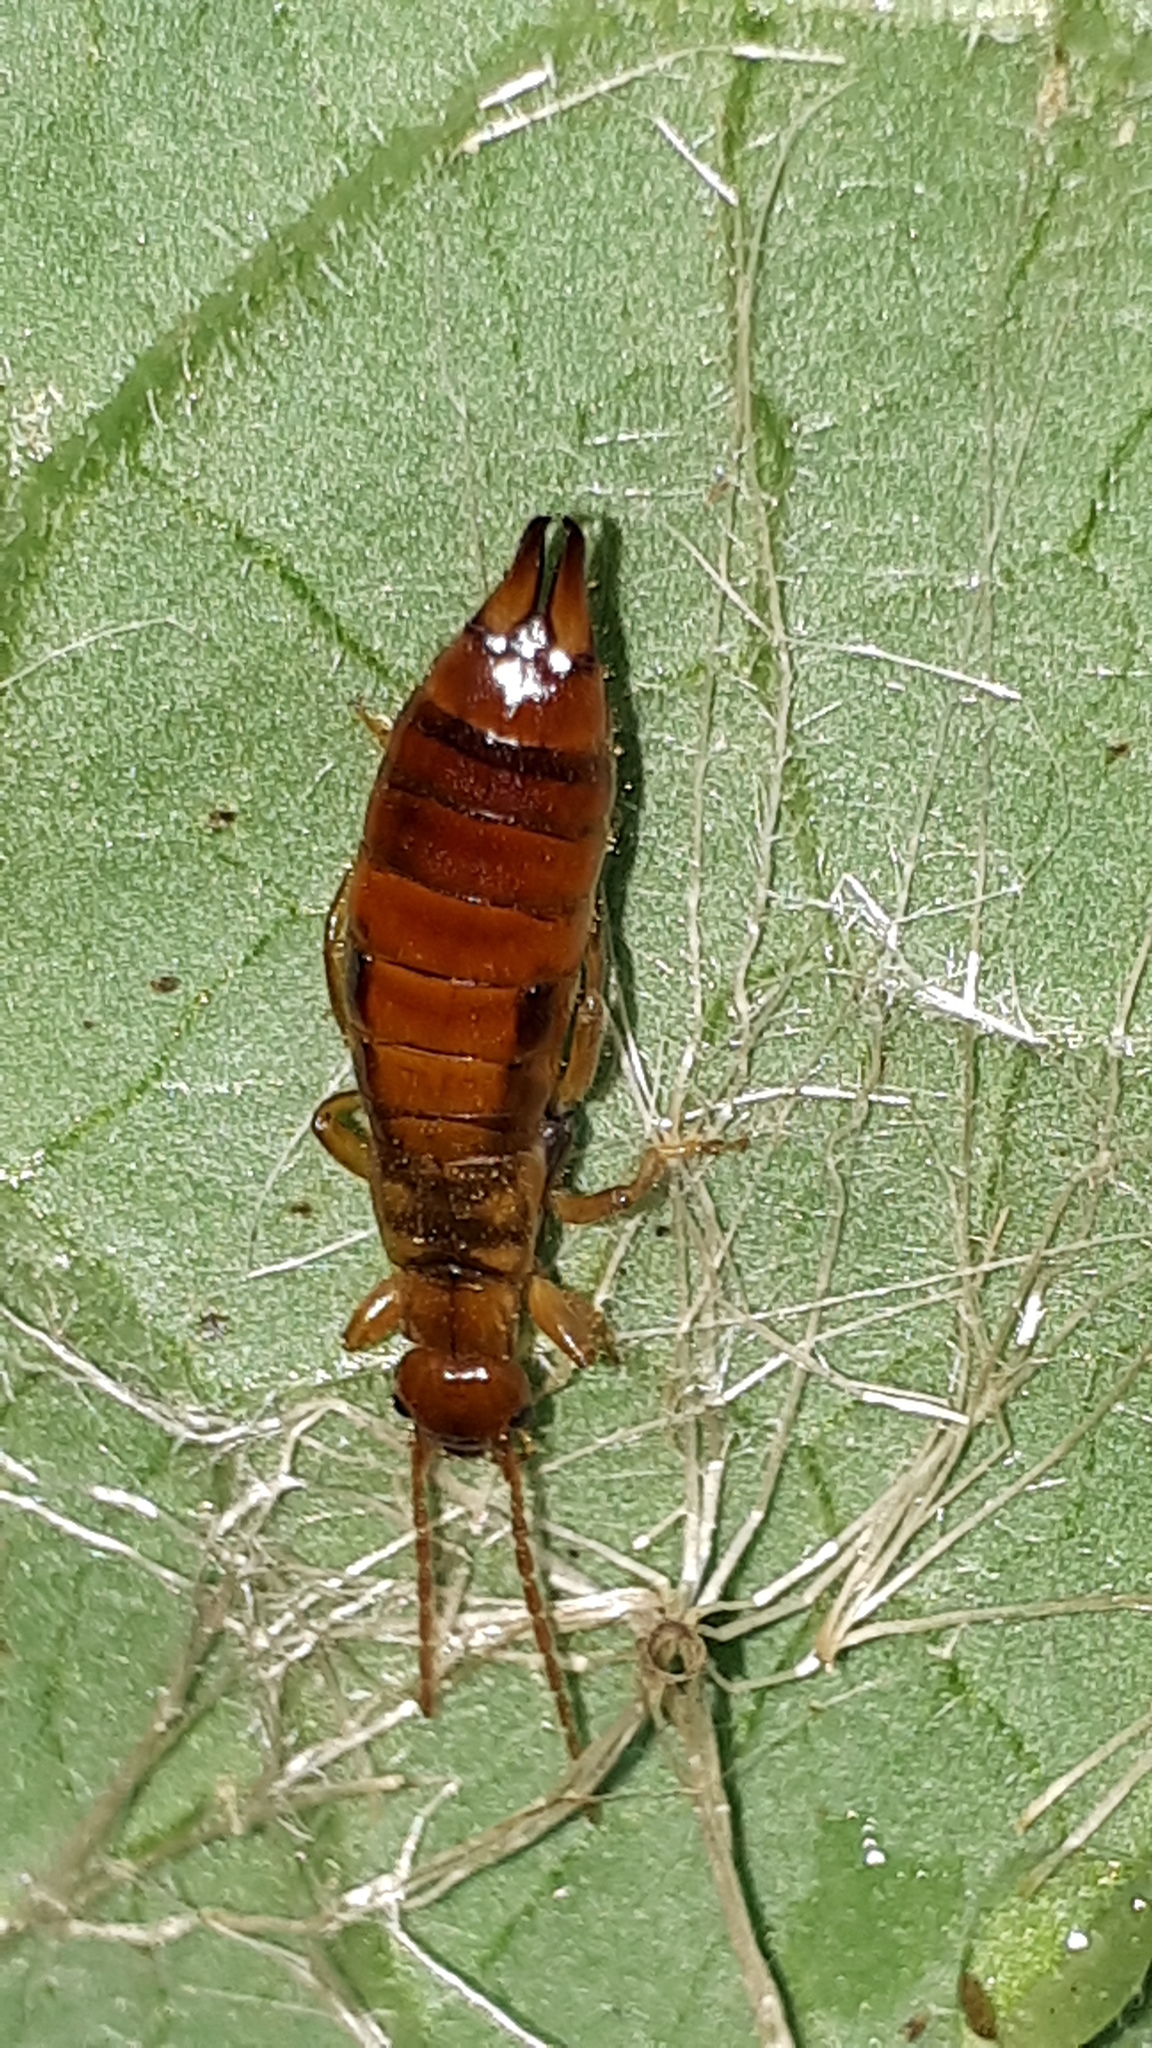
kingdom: Animalia
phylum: Arthropoda
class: Insecta
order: Dermaptera
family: Forficulidae
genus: Apterygida
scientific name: Apterygida albipennis
